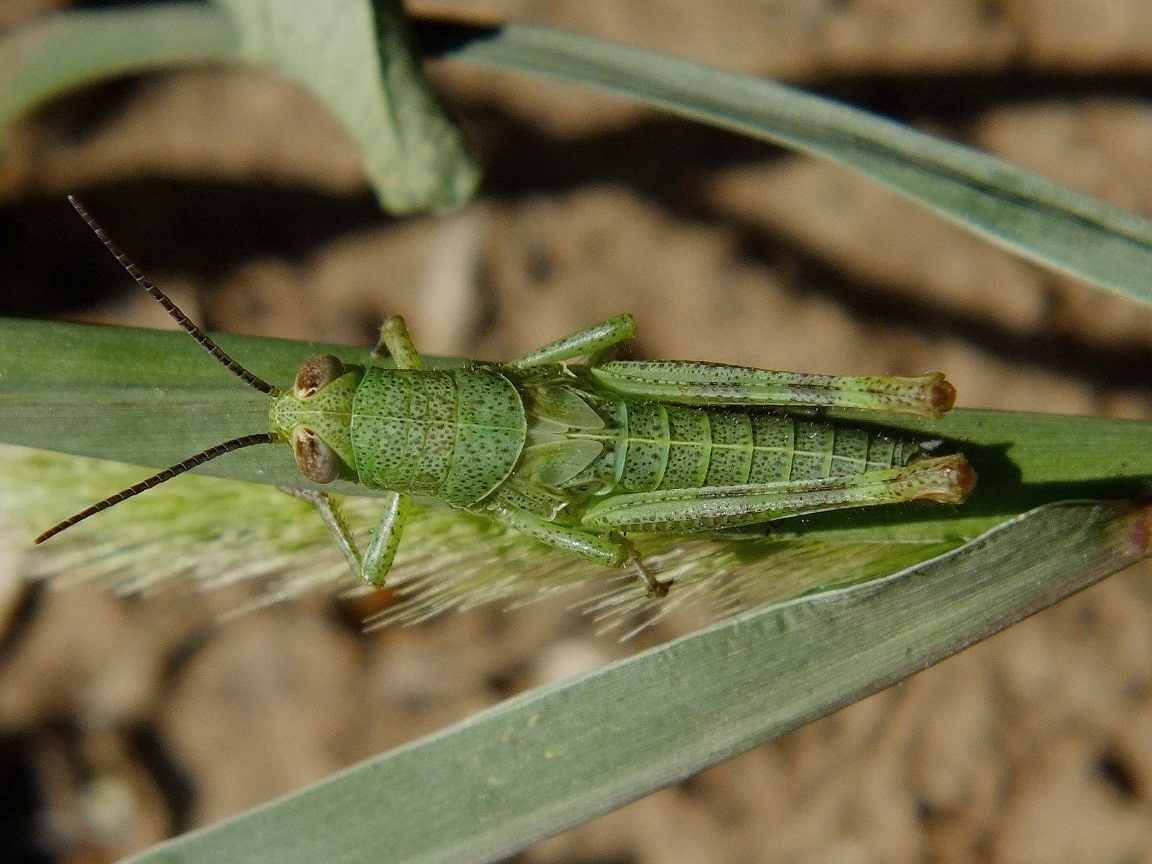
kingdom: Animalia
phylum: Arthropoda
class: Insecta
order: Orthoptera
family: Acrididae
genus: Heteracris
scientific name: Heteracris pterosticha
